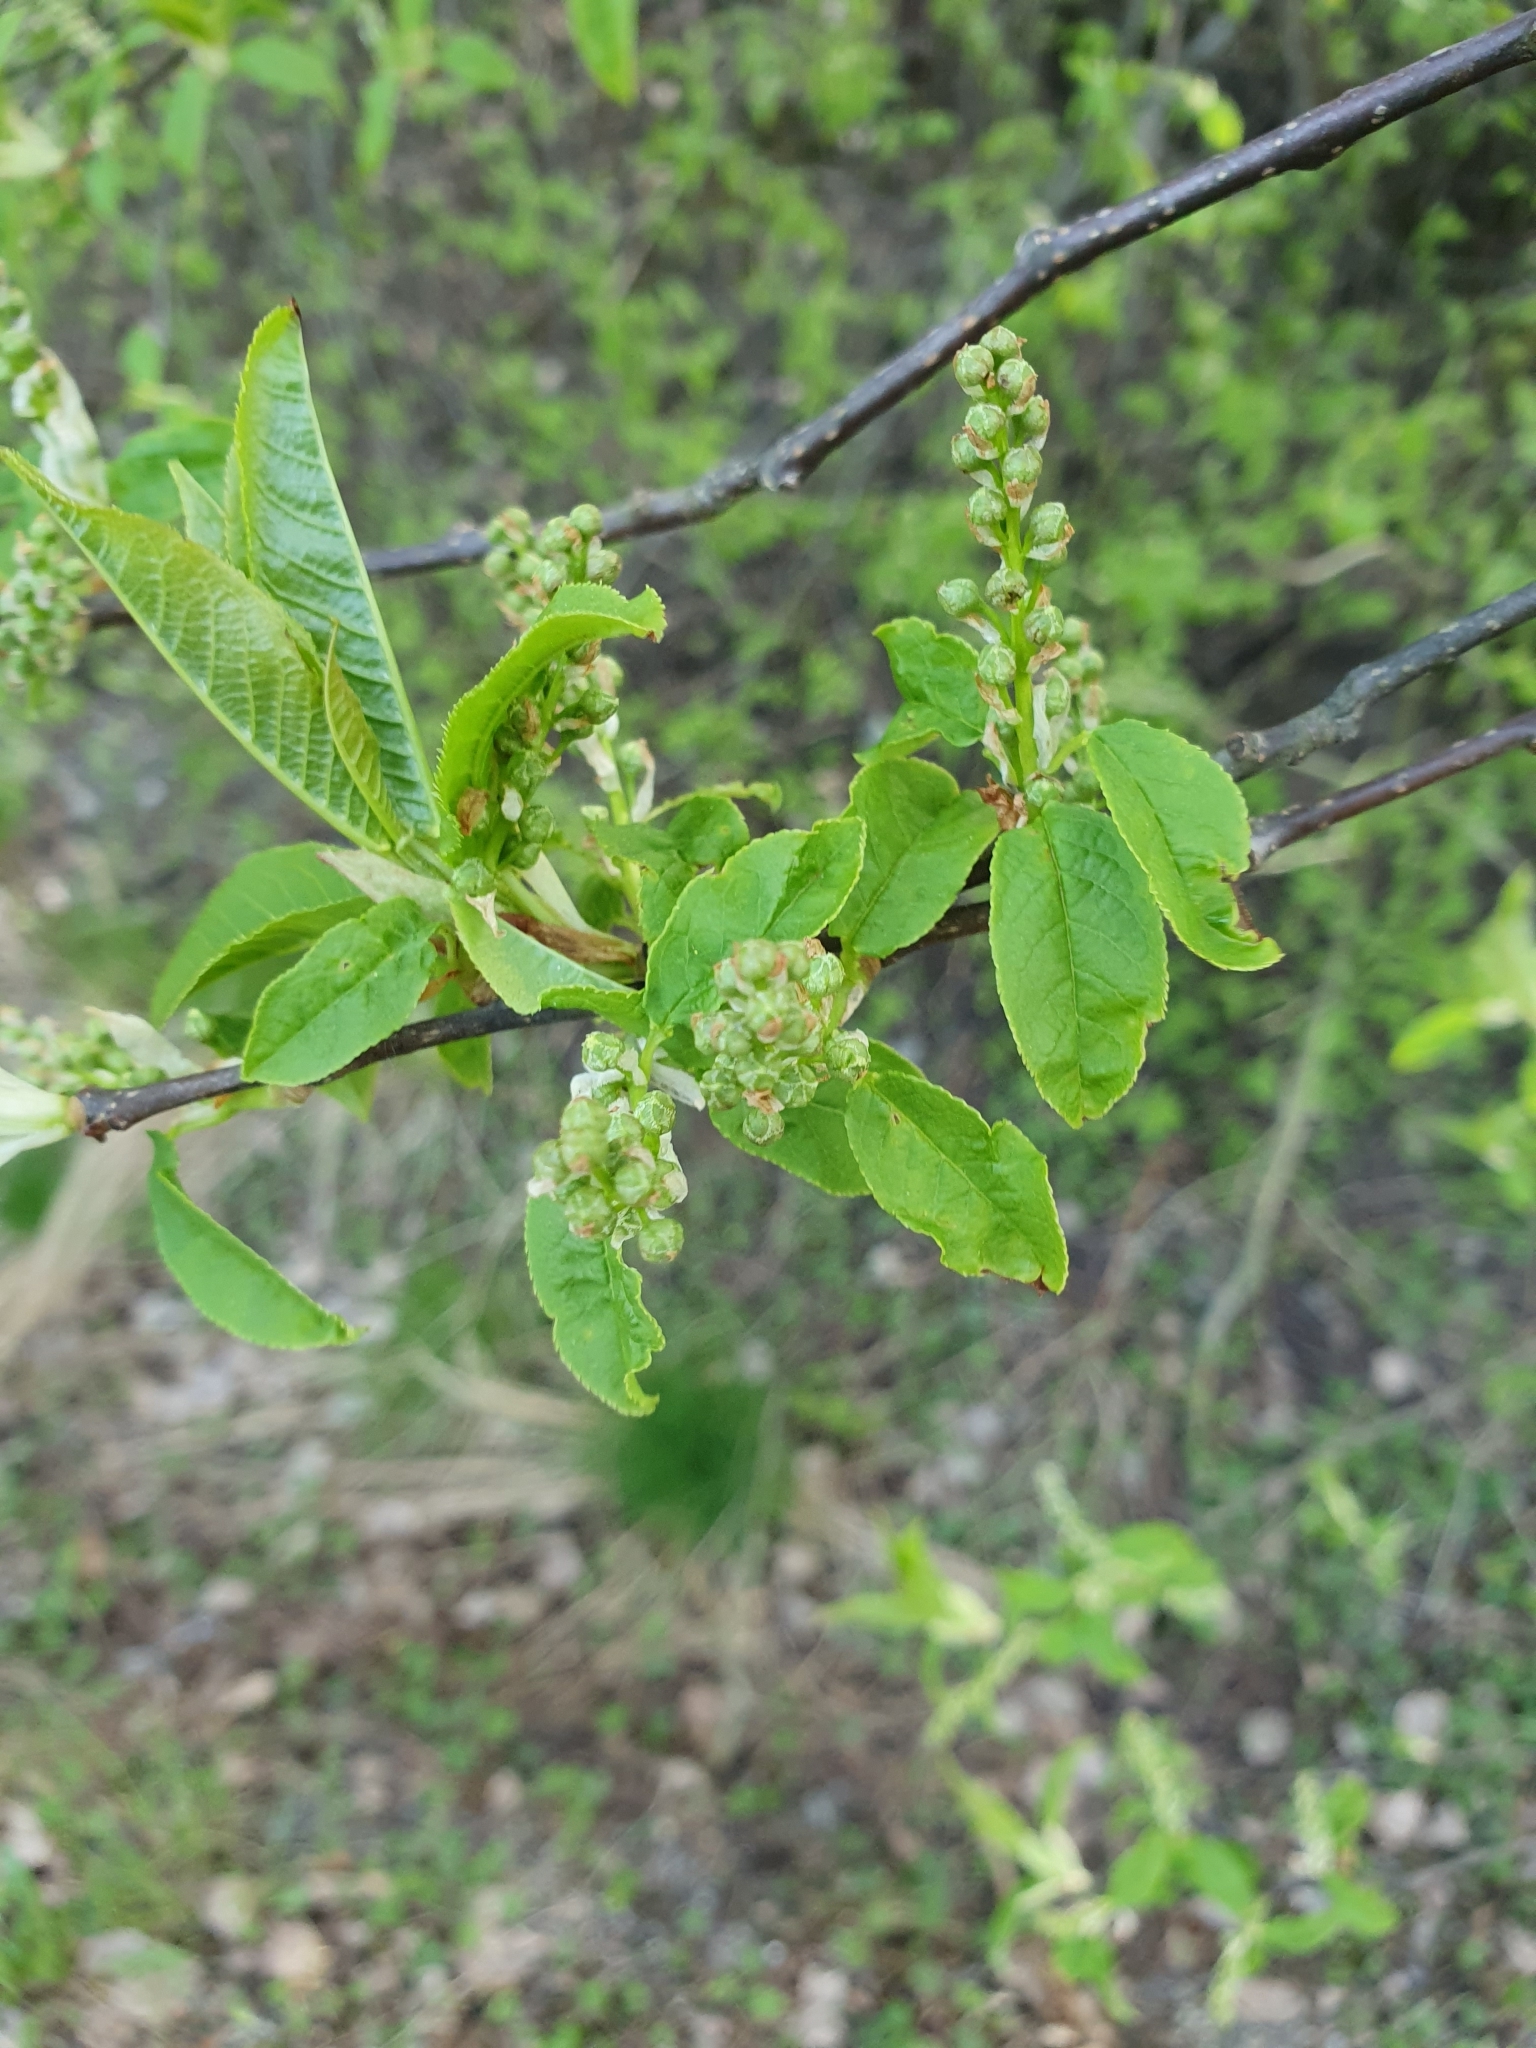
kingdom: Plantae
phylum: Tracheophyta
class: Magnoliopsida
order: Rosales
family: Rosaceae
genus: Prunus
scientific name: Prunus padus
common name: Bird cherry
